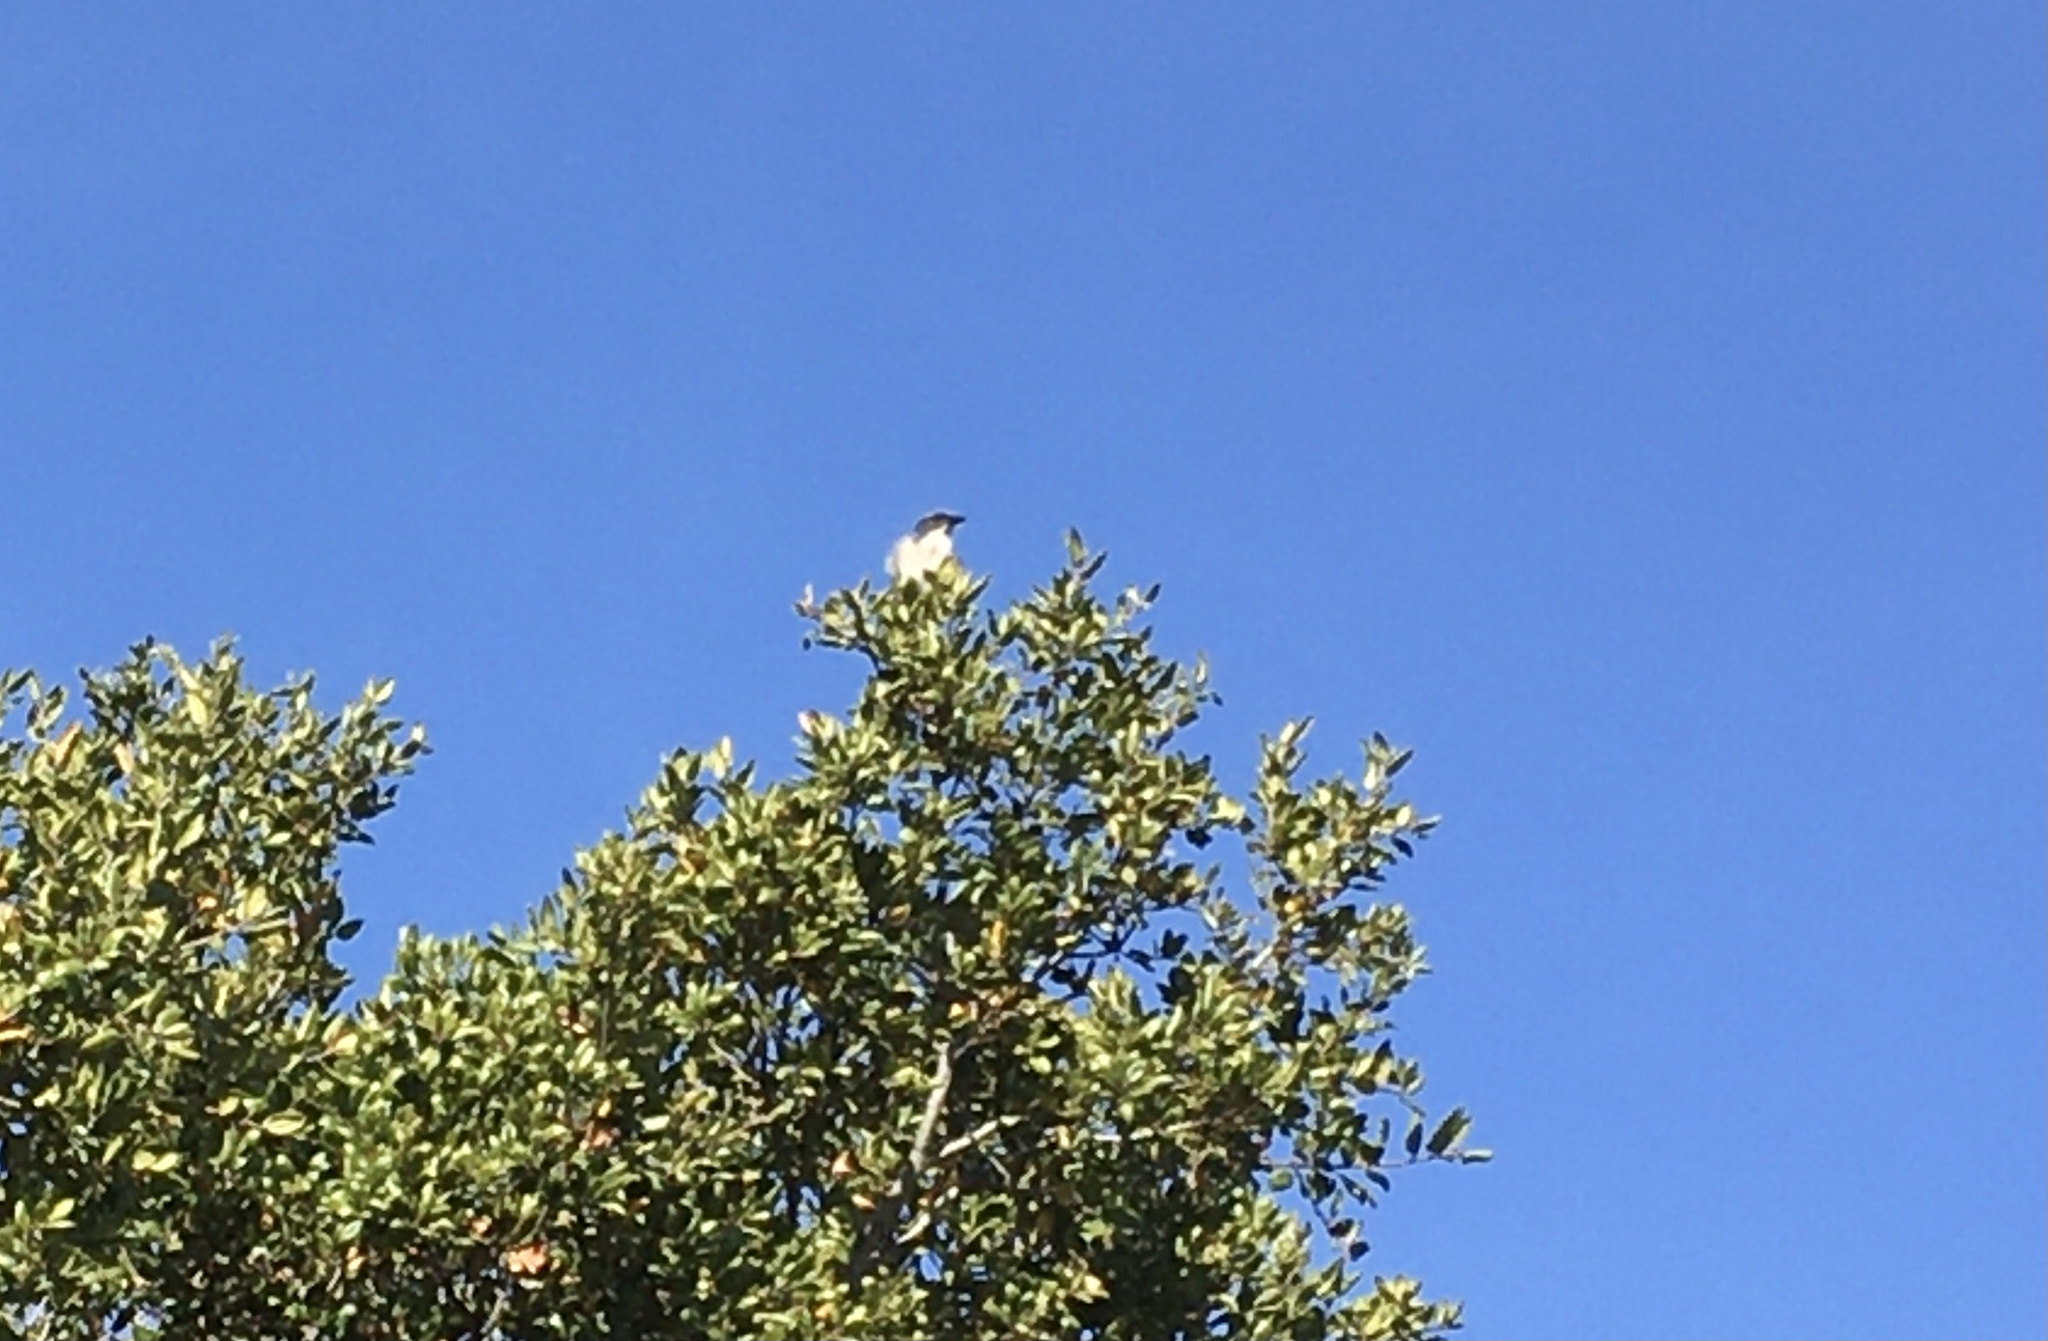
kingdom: Animalia
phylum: Chordata
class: Aves
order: Passeriformes
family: Corvidae
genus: Aphelocoma
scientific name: Aphelocoma californica
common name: California scrub-jay
